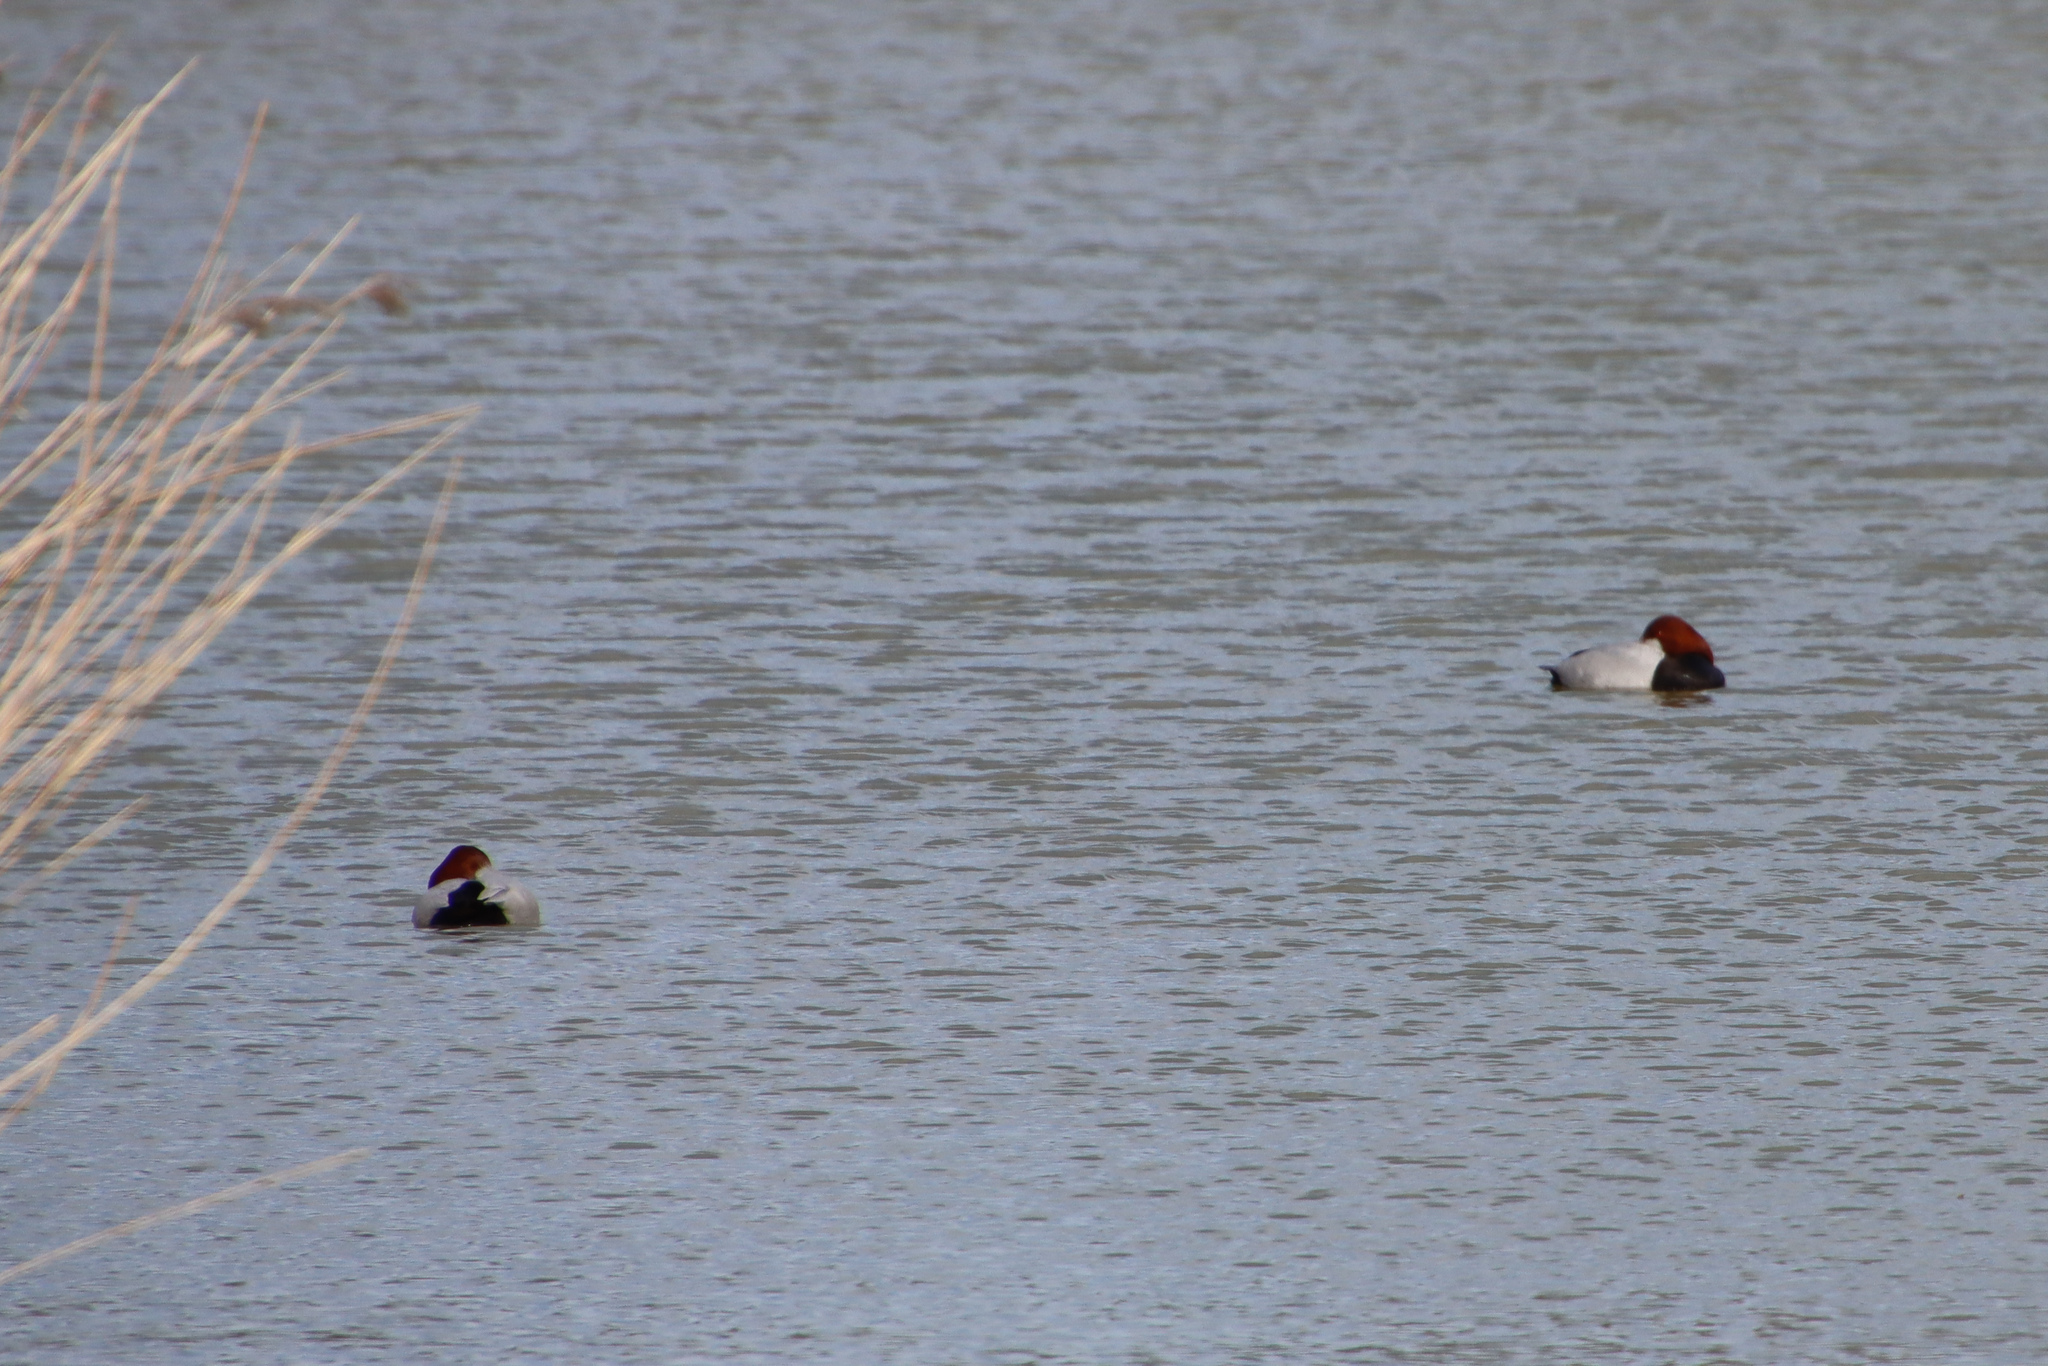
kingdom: Animalia
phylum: Chordata
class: Aves
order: Anseriformes
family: Anatidae
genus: Aythya
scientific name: Aythya ferina
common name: Common pochard
